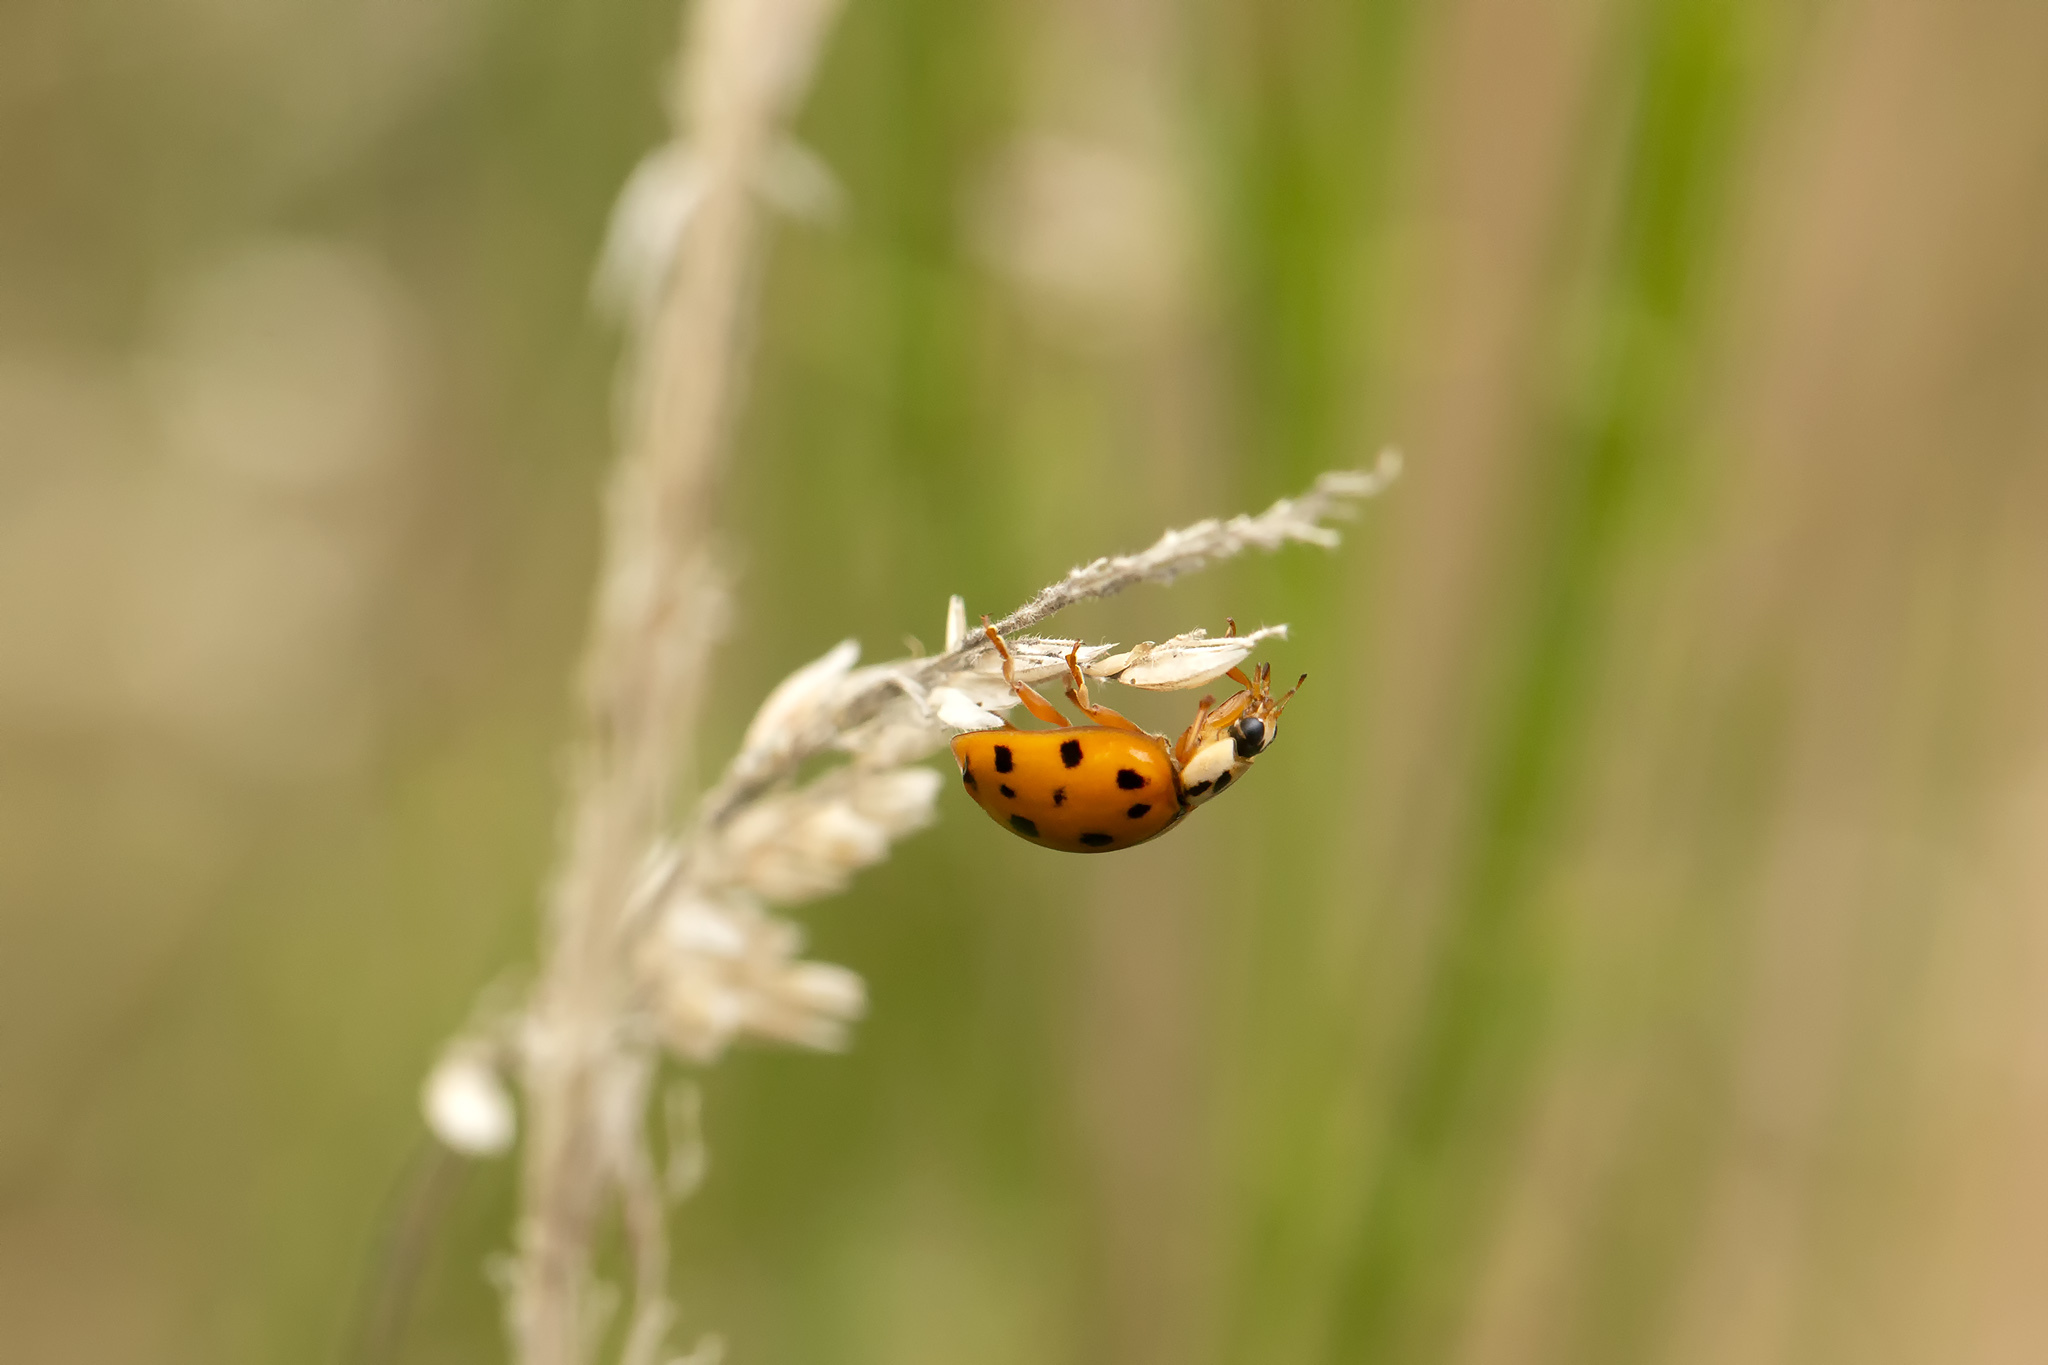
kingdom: Animalia
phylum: Arthropoda
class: Insecta
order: Coleoptera
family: Coccinellidae
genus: Harmonia
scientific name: Harmonia axyridis
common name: Harlequin ladybird
